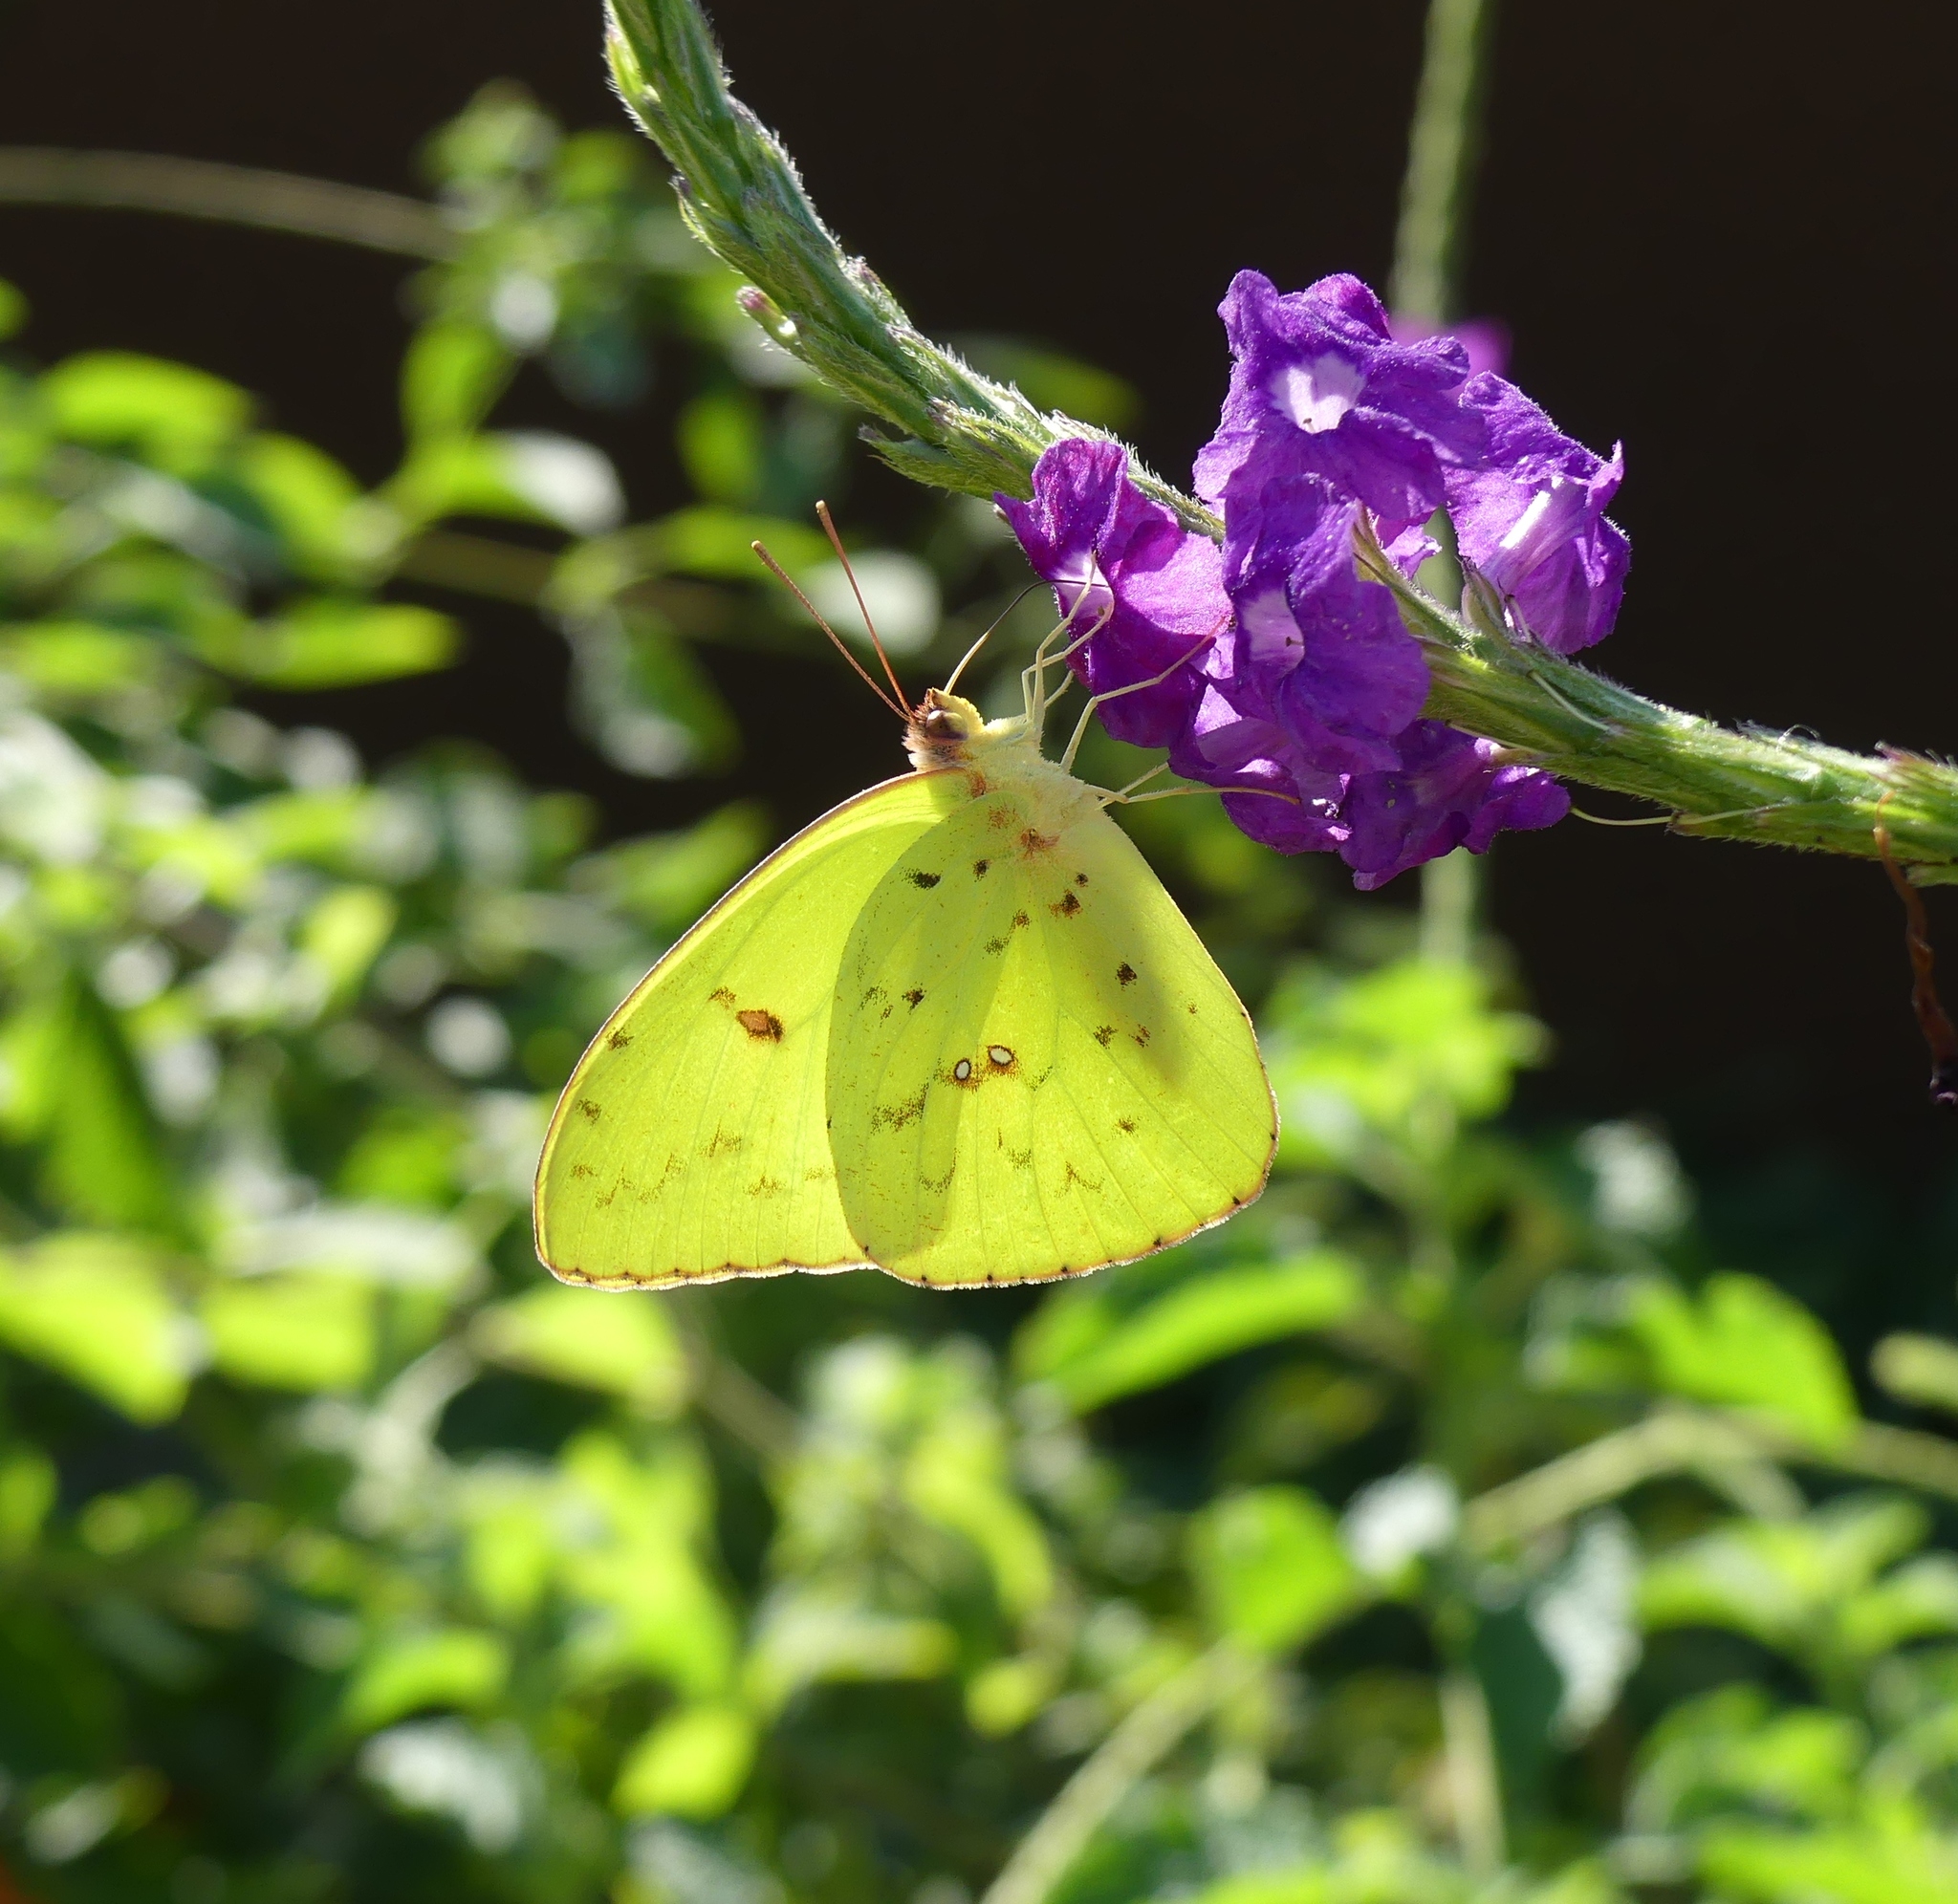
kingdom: Animalia
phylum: Arthropoda
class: Insecta
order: Lepidoptera
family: Pieridae
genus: Phoebis
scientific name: Phoebis sennae
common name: Cloudless sulphur
